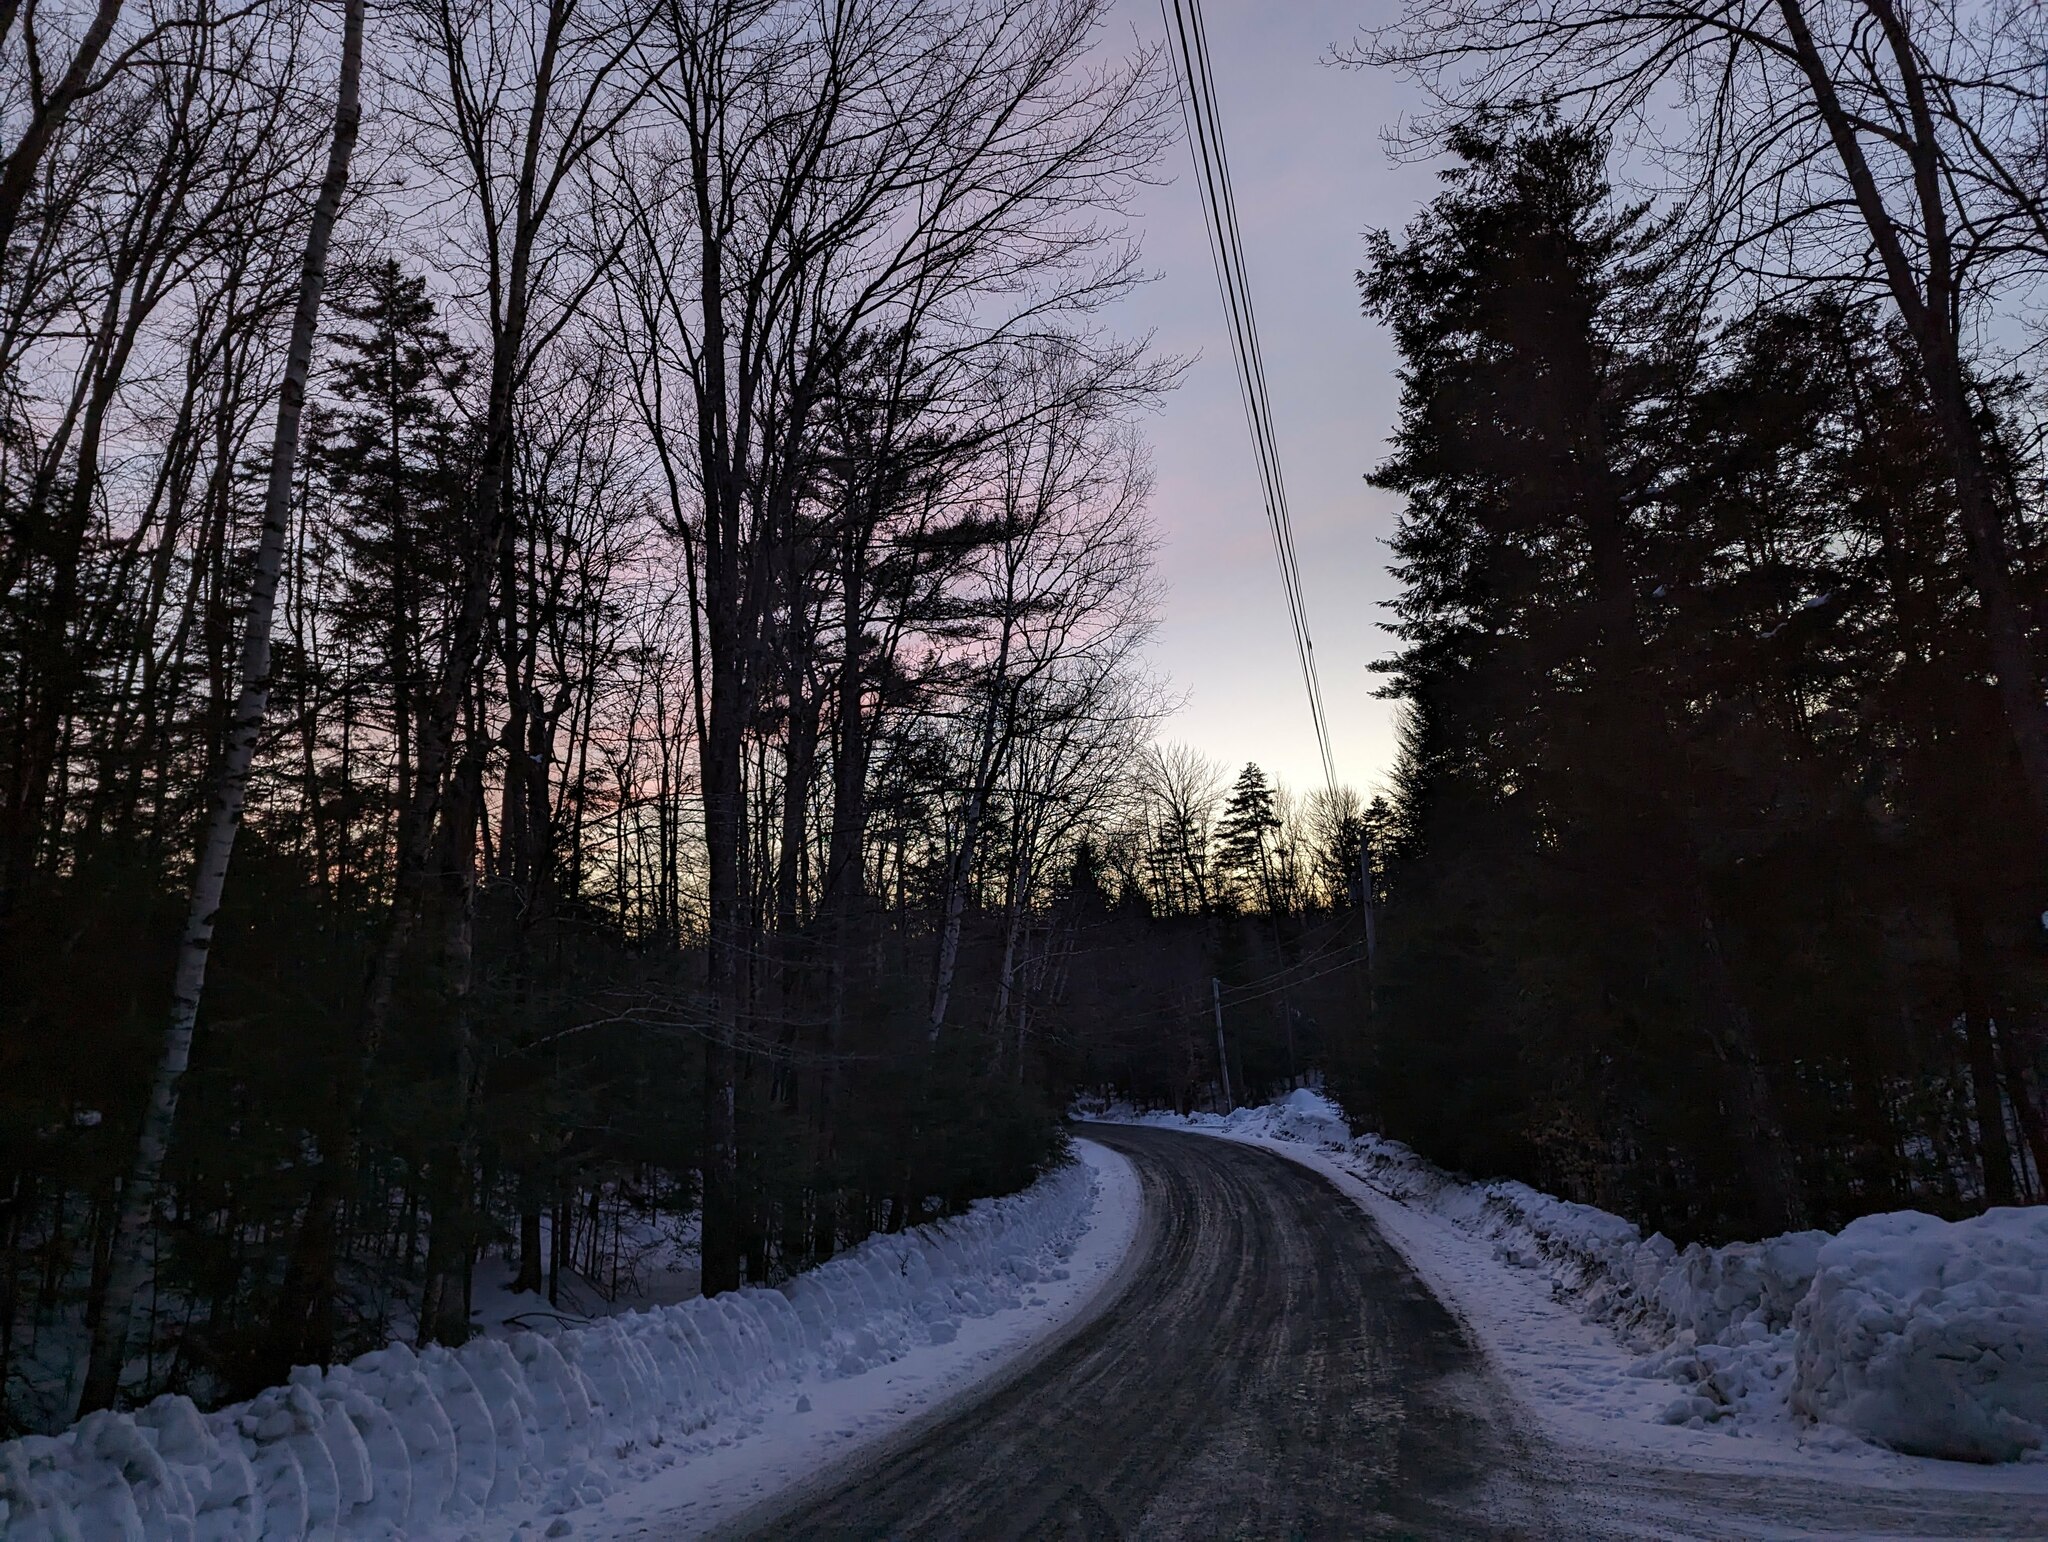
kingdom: Plantae
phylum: Tracheophyta
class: Pinopsida
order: Pinales
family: Pinaceae
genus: Pinus
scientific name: Pinus strobus
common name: Weymouth pine
